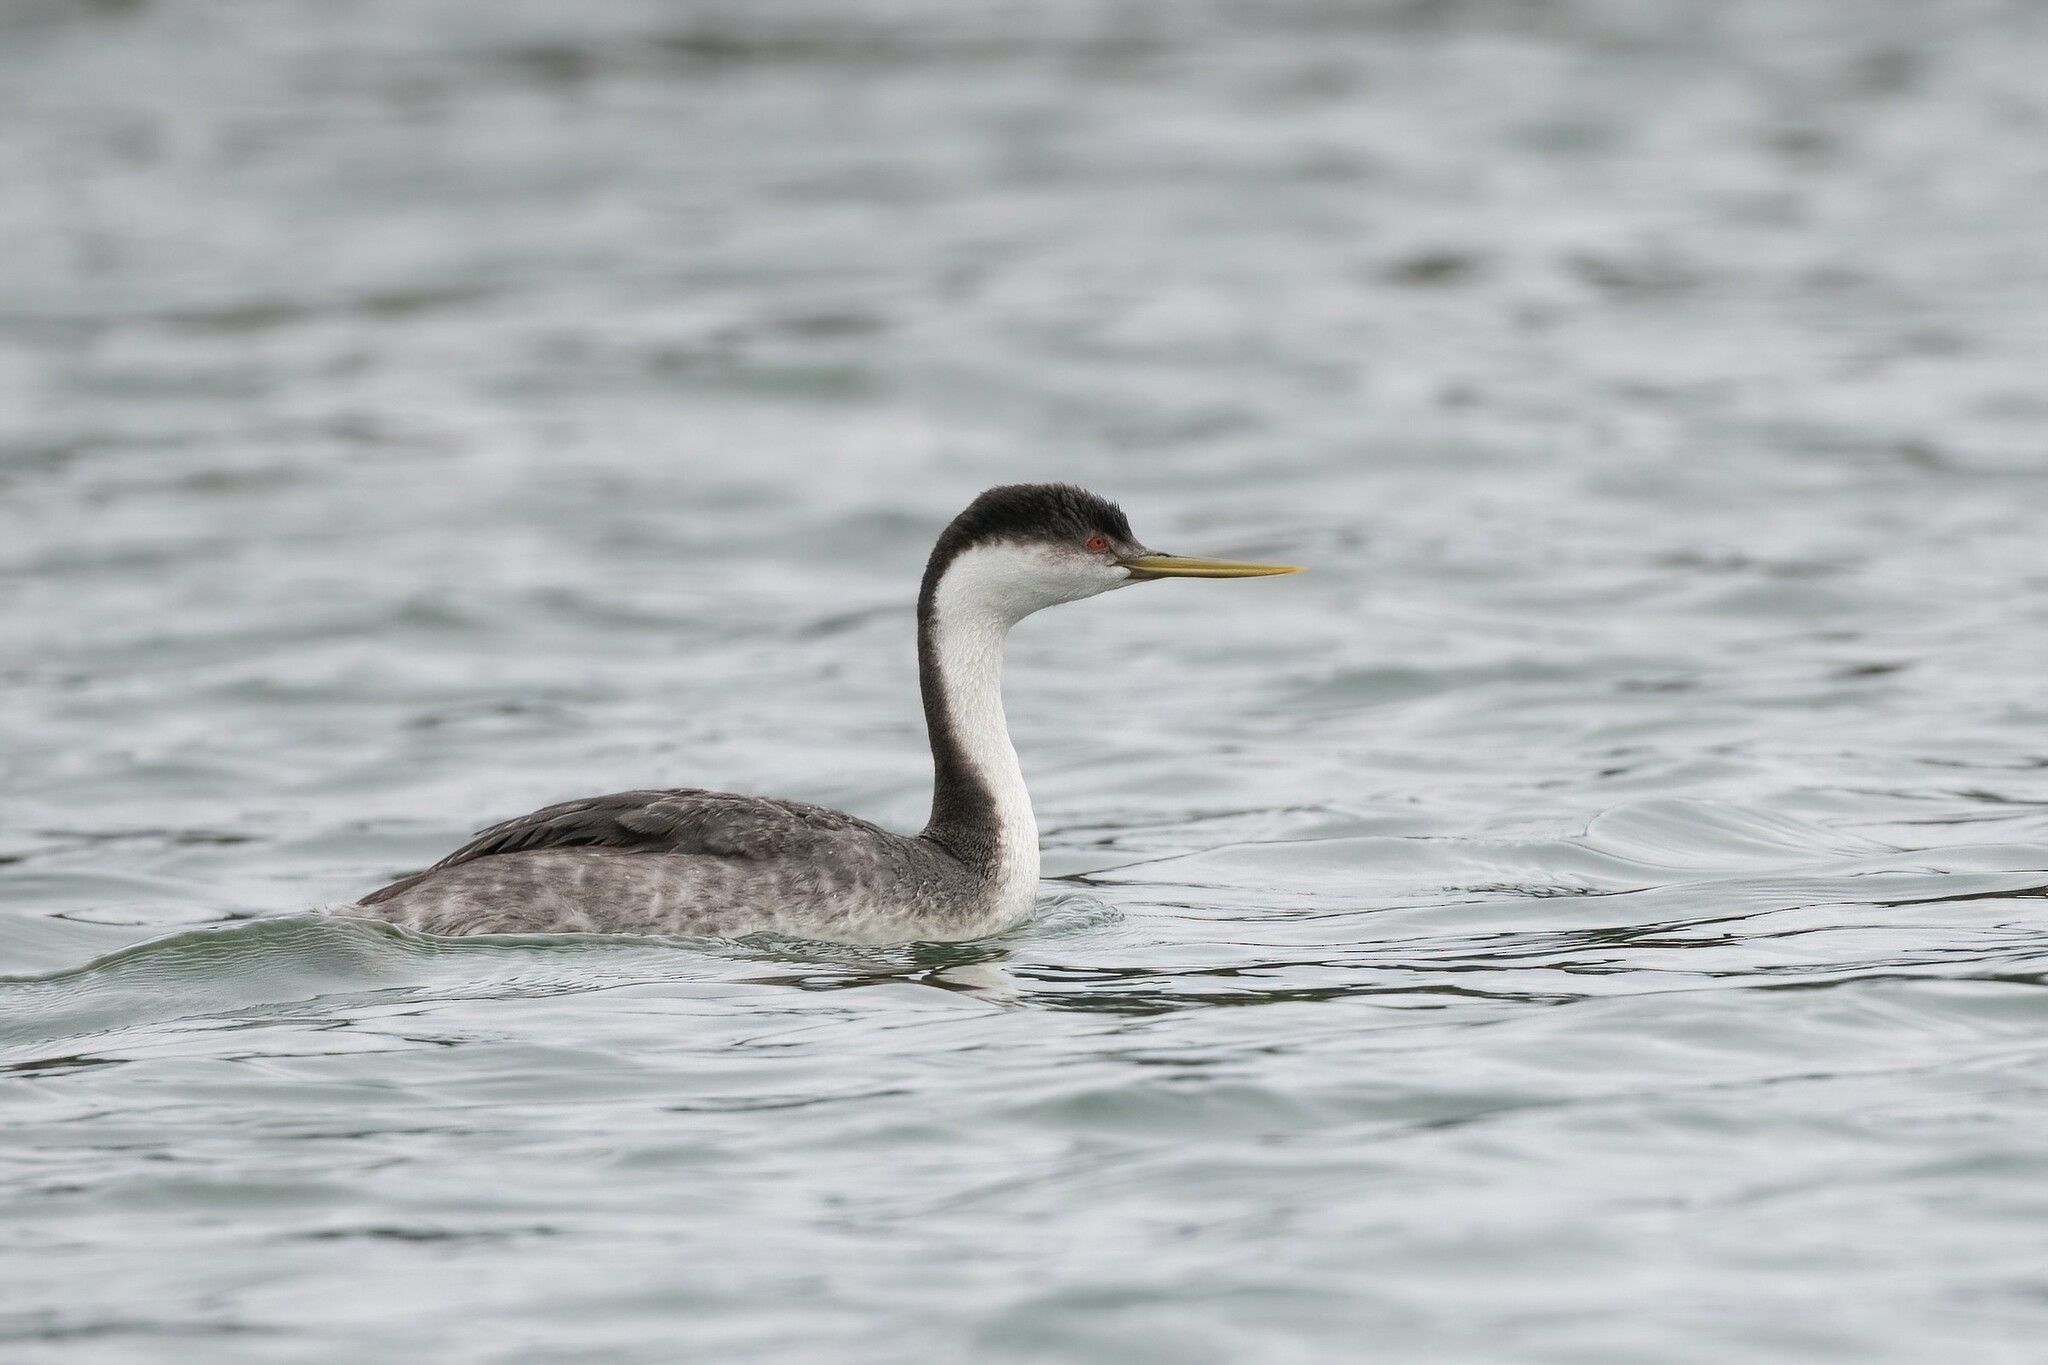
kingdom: Animalia
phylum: Chordata
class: Aves
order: Podicipediformes
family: Podicipedidae
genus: Aechmophorus
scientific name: Aechmophorus occidentalis
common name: Western grebe
